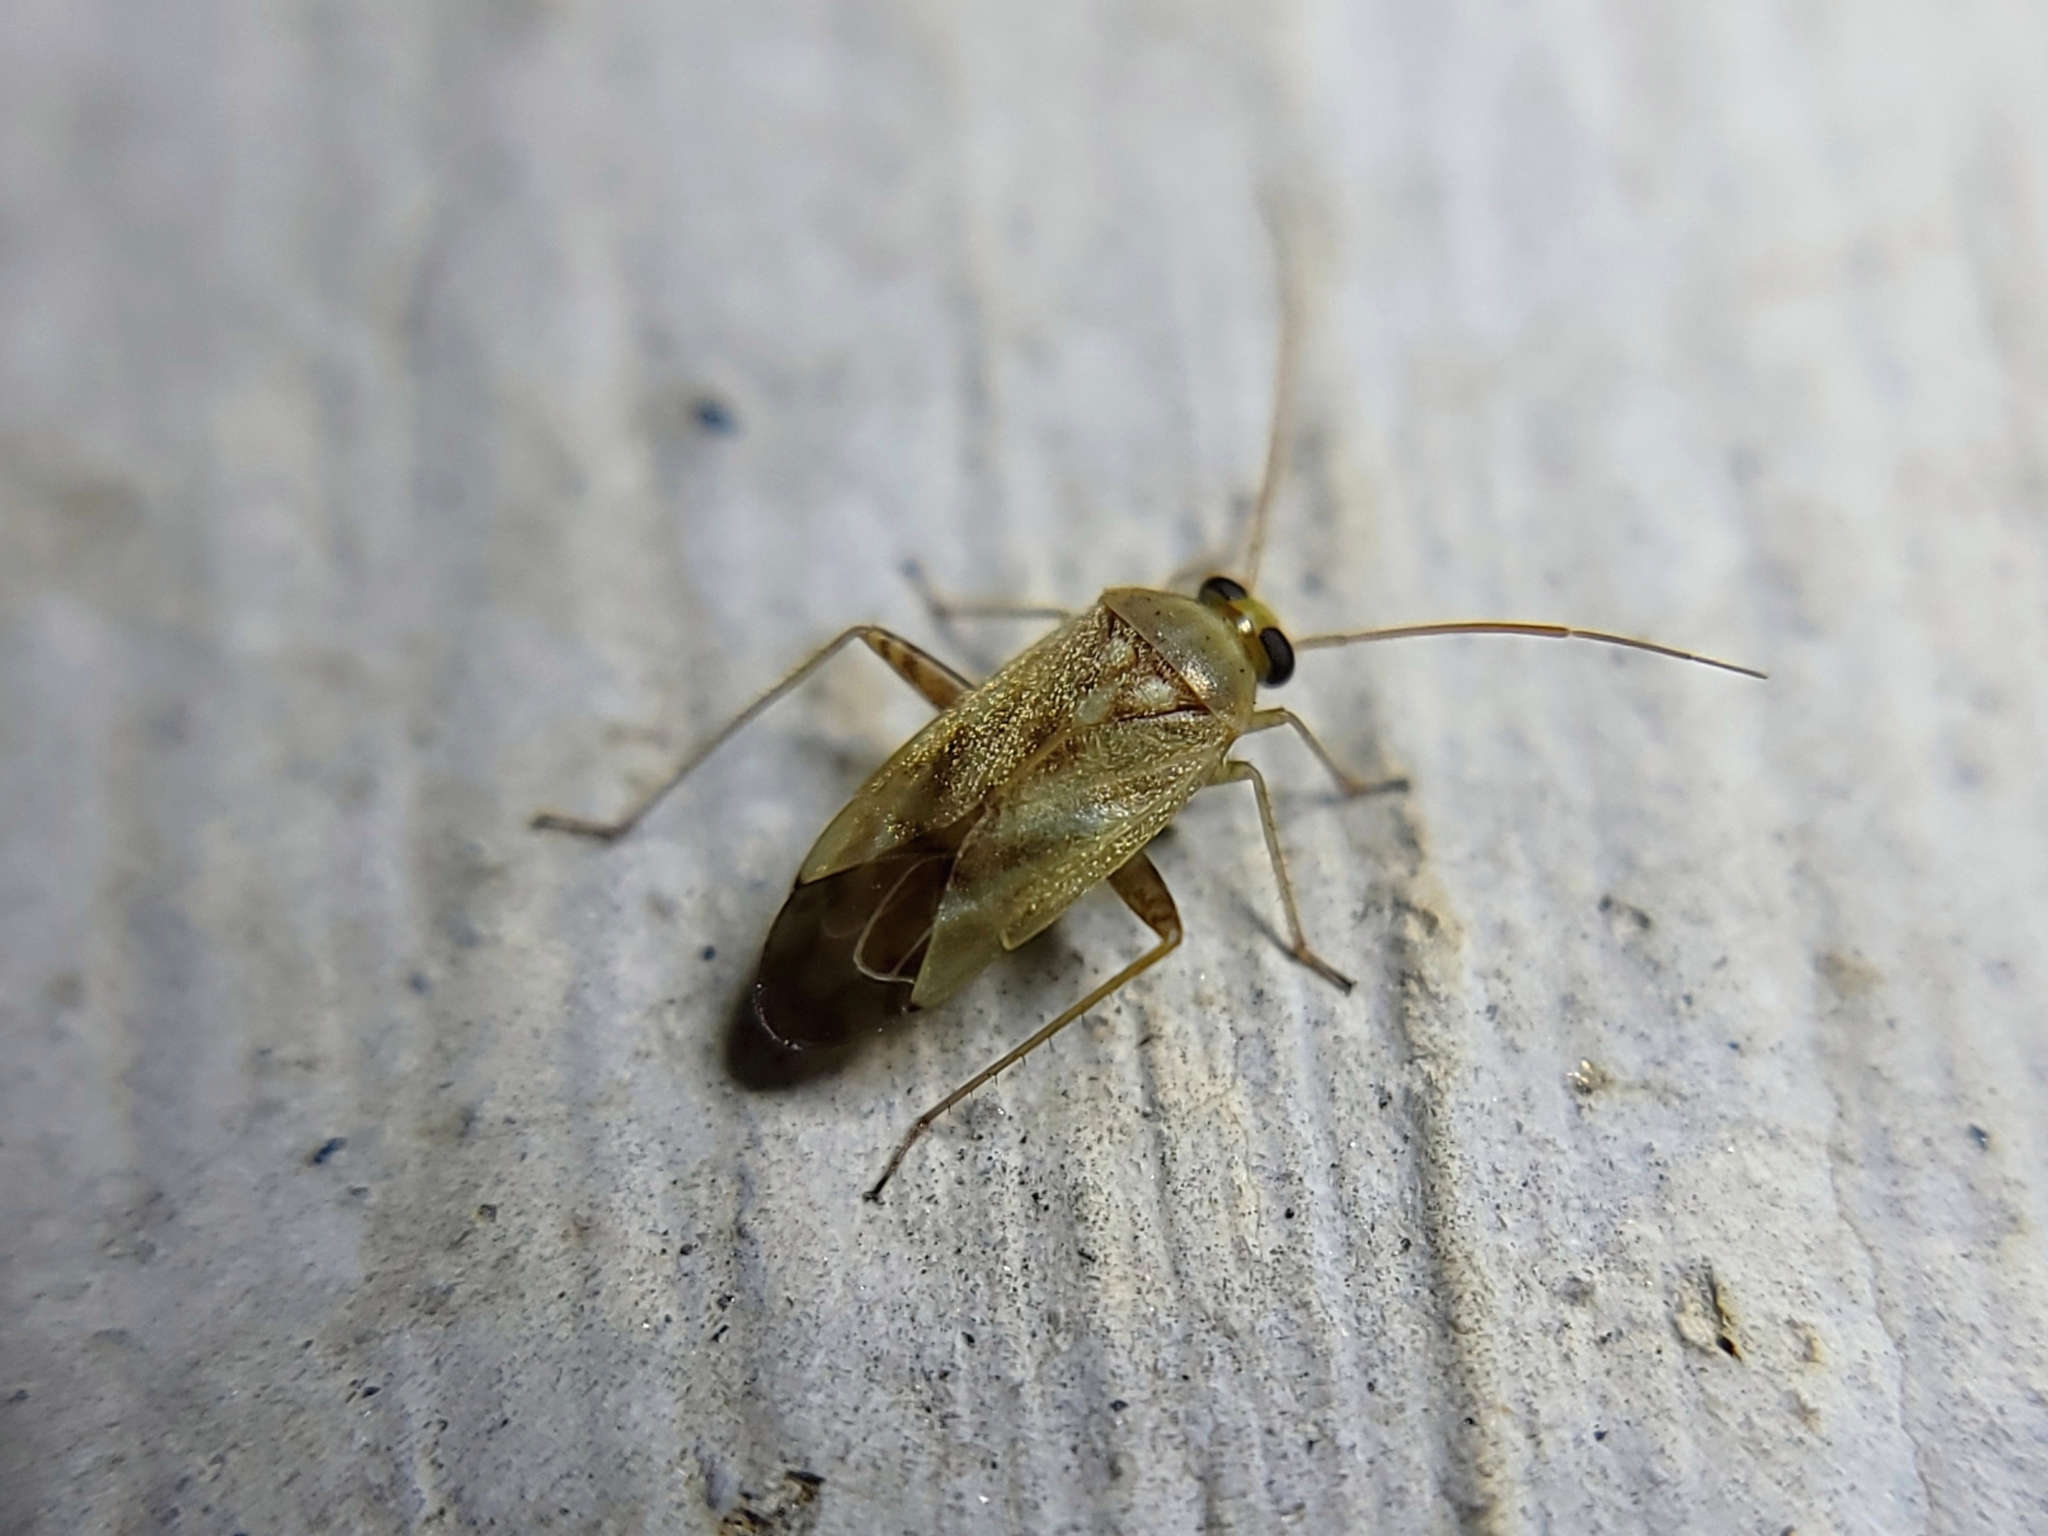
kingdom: Animalia
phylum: Arthropoda
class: Insecta
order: Hemiptera
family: Miridae
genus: Taylorilygus
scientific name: Taylorilygus apicalis
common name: Plant bug
